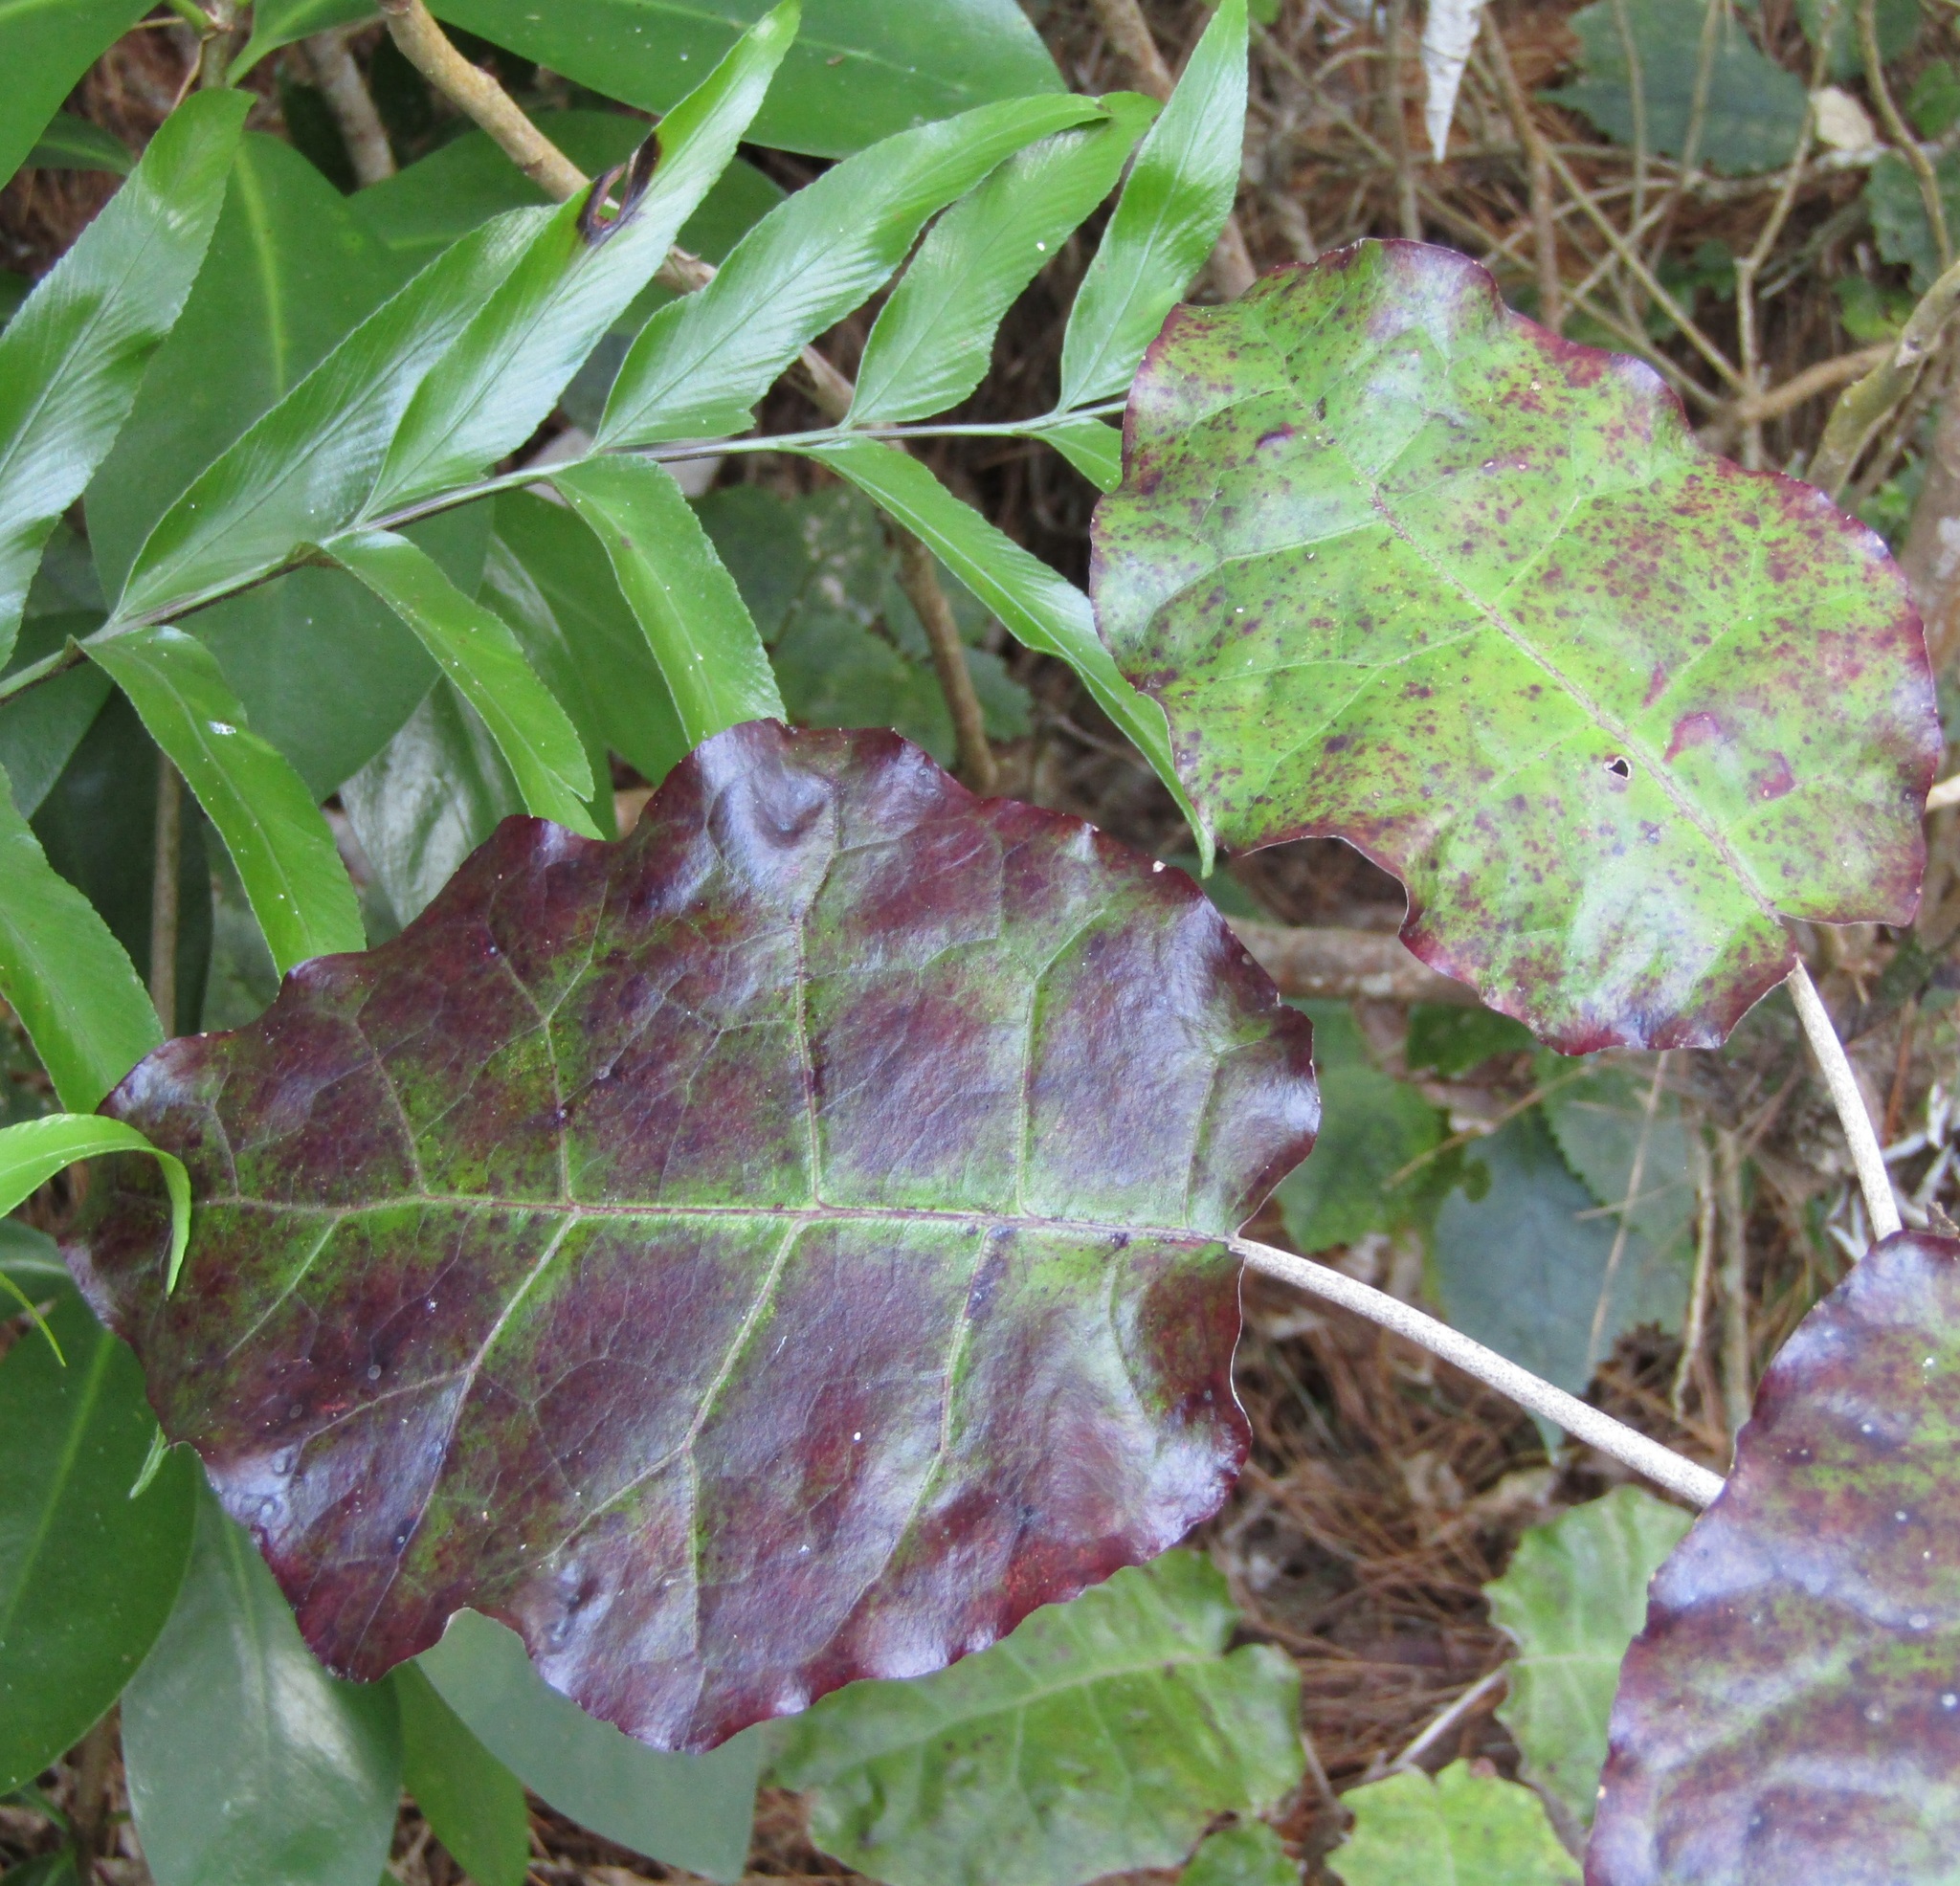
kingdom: Plantae
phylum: Tracheophyta
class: Magnoliopsida
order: Asterales
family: Asteraceae
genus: Brachyglottis
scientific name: Brachyglottis repanda
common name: Hedge ragwort
